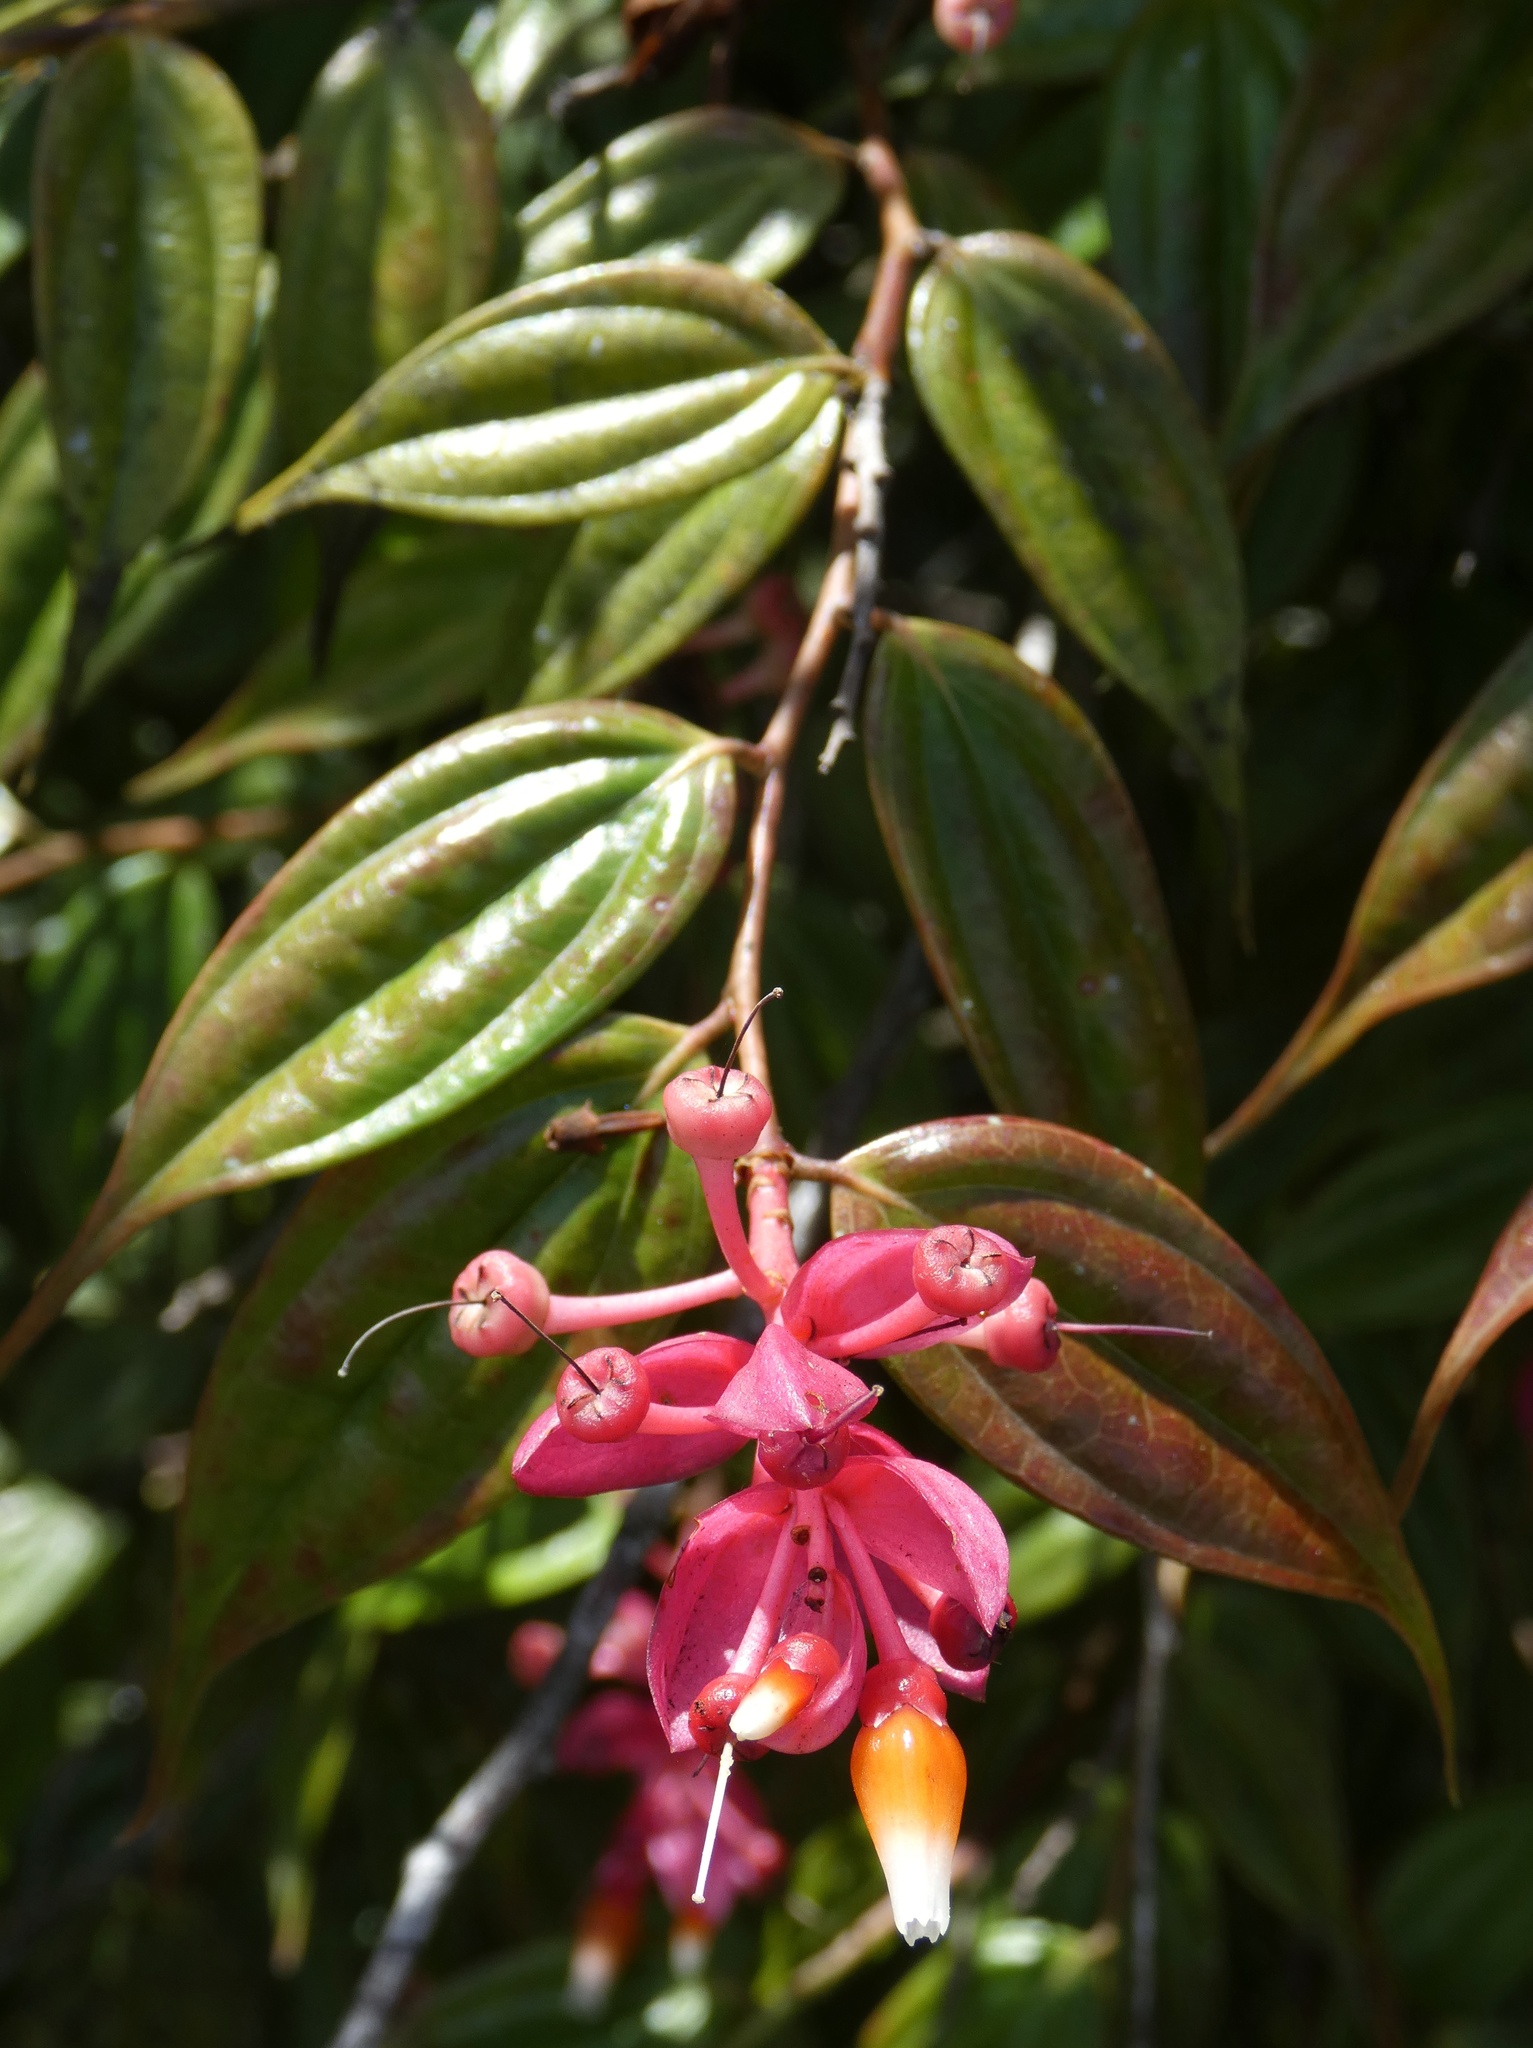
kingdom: Plantae
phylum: Tracheophyta
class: Magnoliopsida
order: Ericales
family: Ericaceae
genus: Cavendishia
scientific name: Cavendishia quereme
